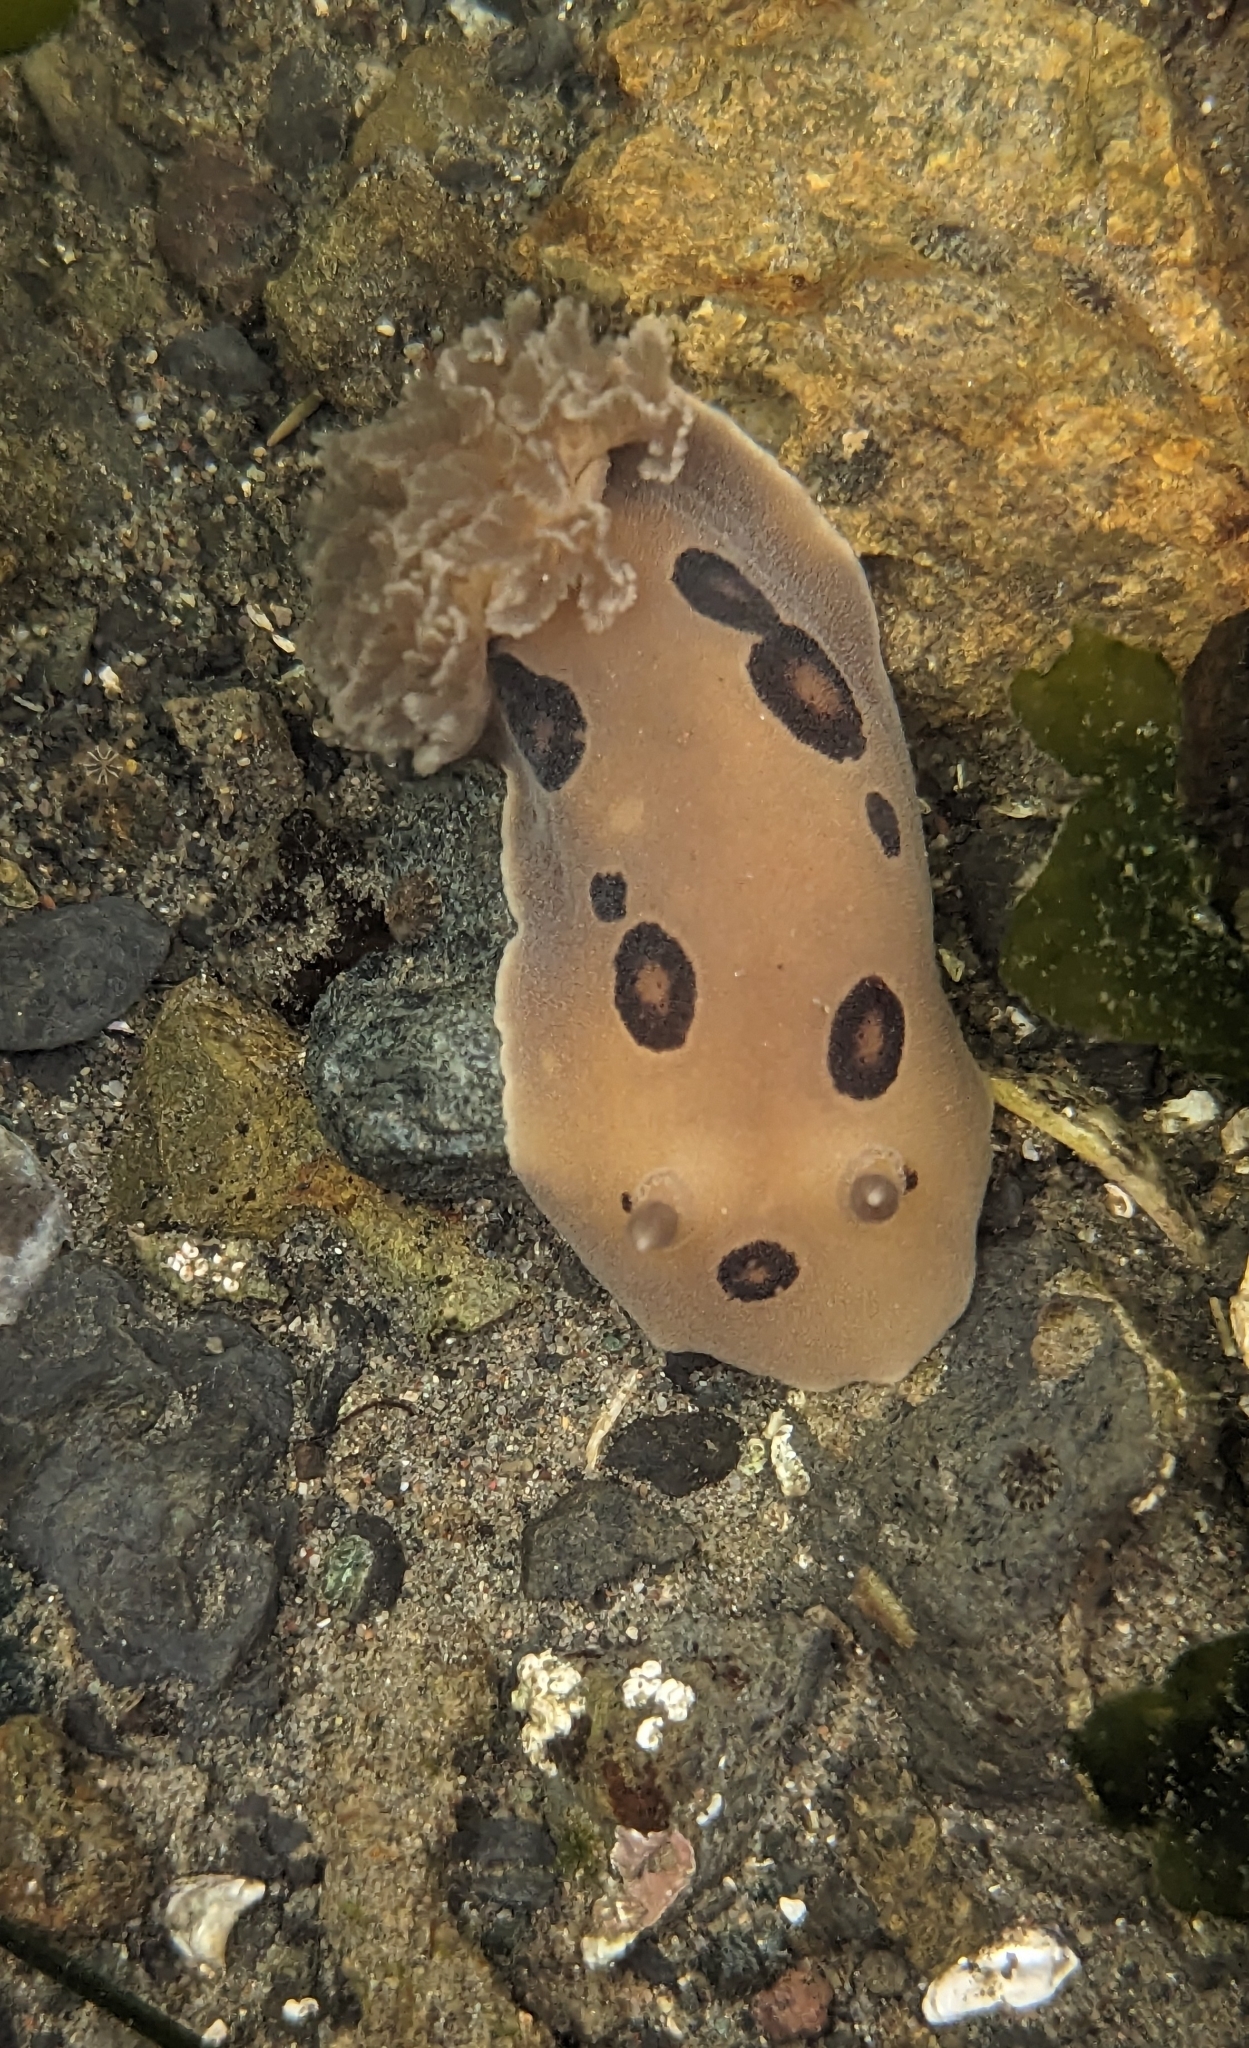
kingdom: Animalia
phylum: Mollusca
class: Gastropoda
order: Nudibranchia
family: Discodorididae
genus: Diaulula
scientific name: Diaulula sandiegensis
